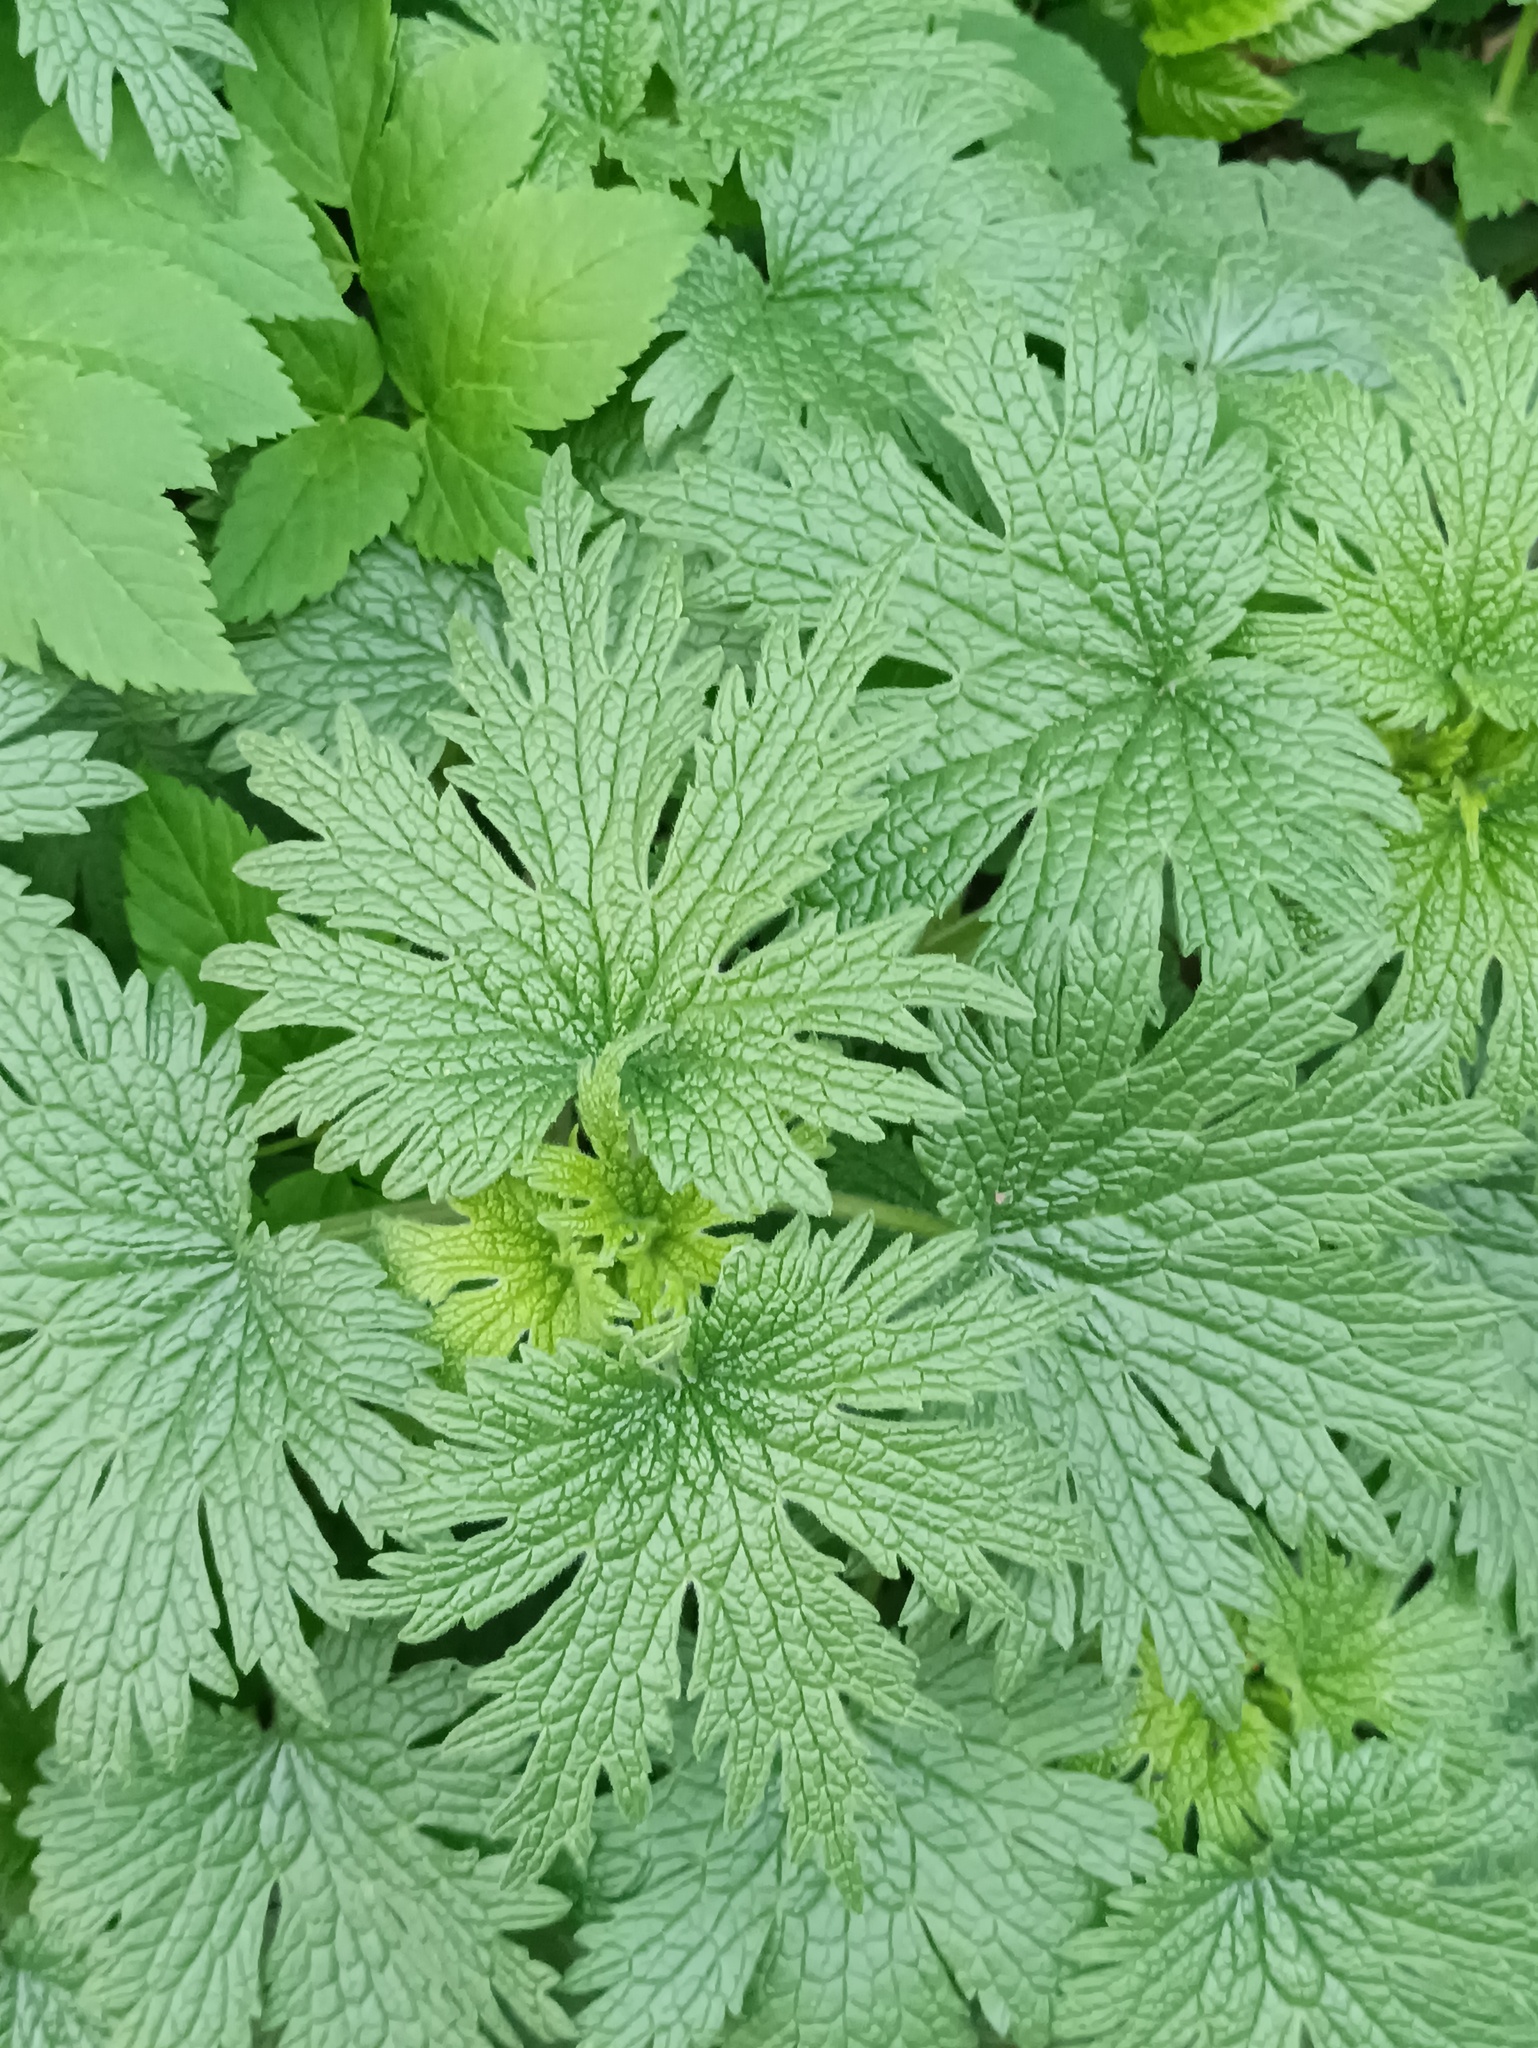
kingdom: Plantae
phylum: Tracheophyta
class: Magnoliopsida
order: Lamiales
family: Lamiaceae
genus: Leonurus
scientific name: Leonurus quinquelobatus
